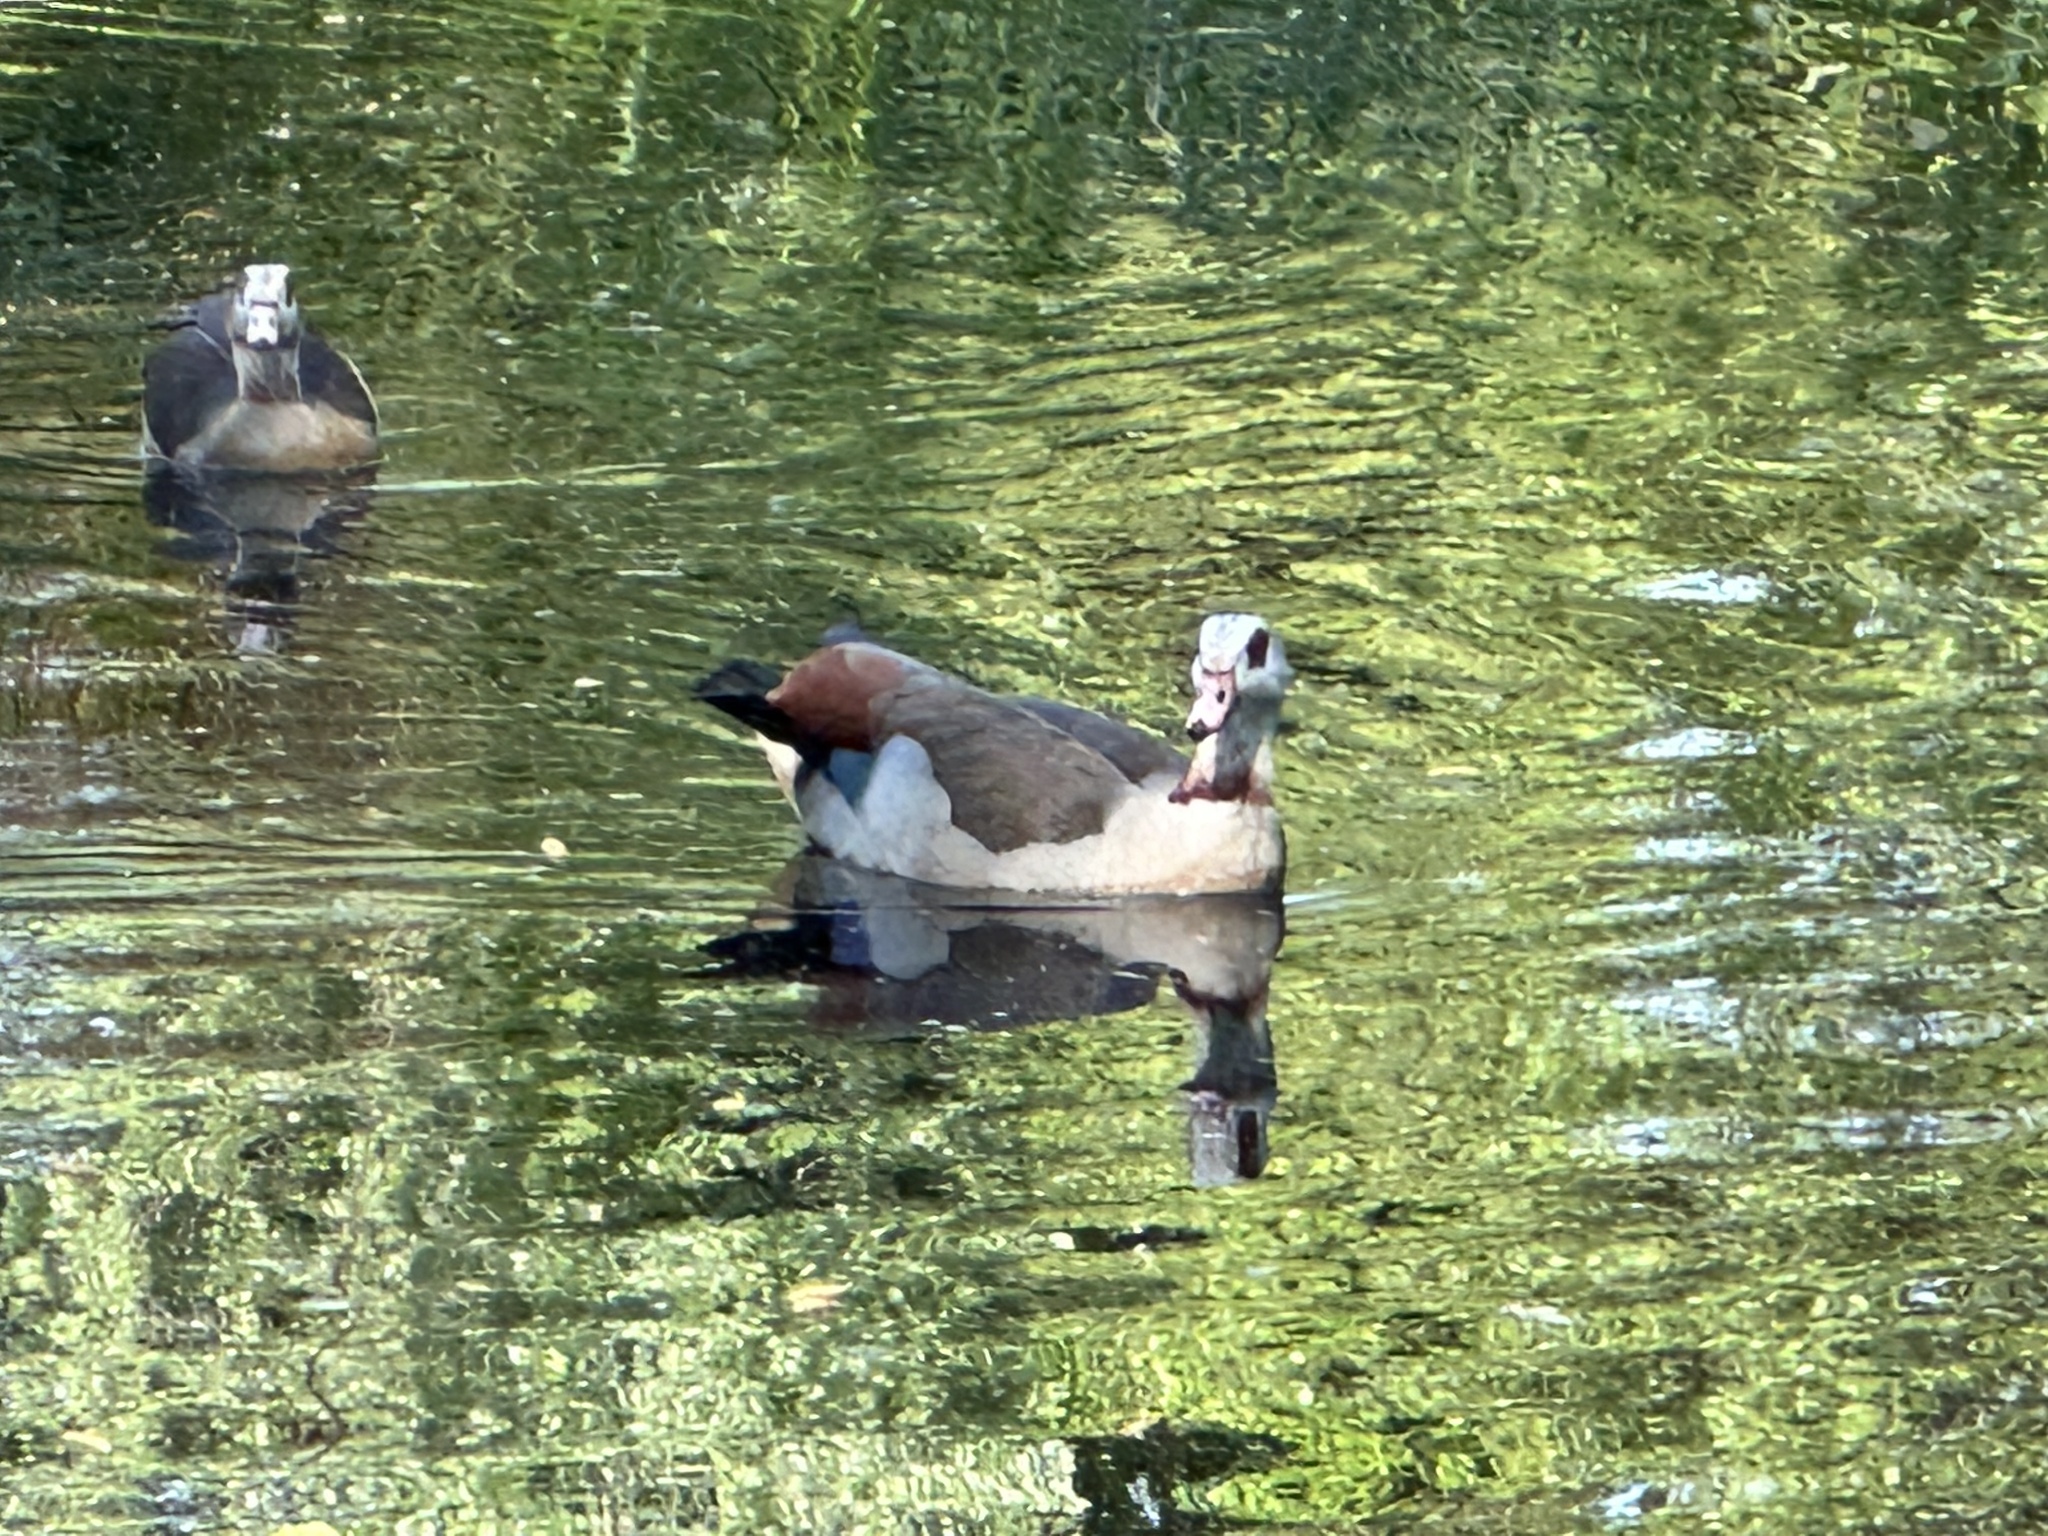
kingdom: Animalia
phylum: Chordata
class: Aves
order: Anseriformes
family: Anatidae
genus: Alopochen
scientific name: Alopochen aegyptiaca
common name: Egyptian goose
